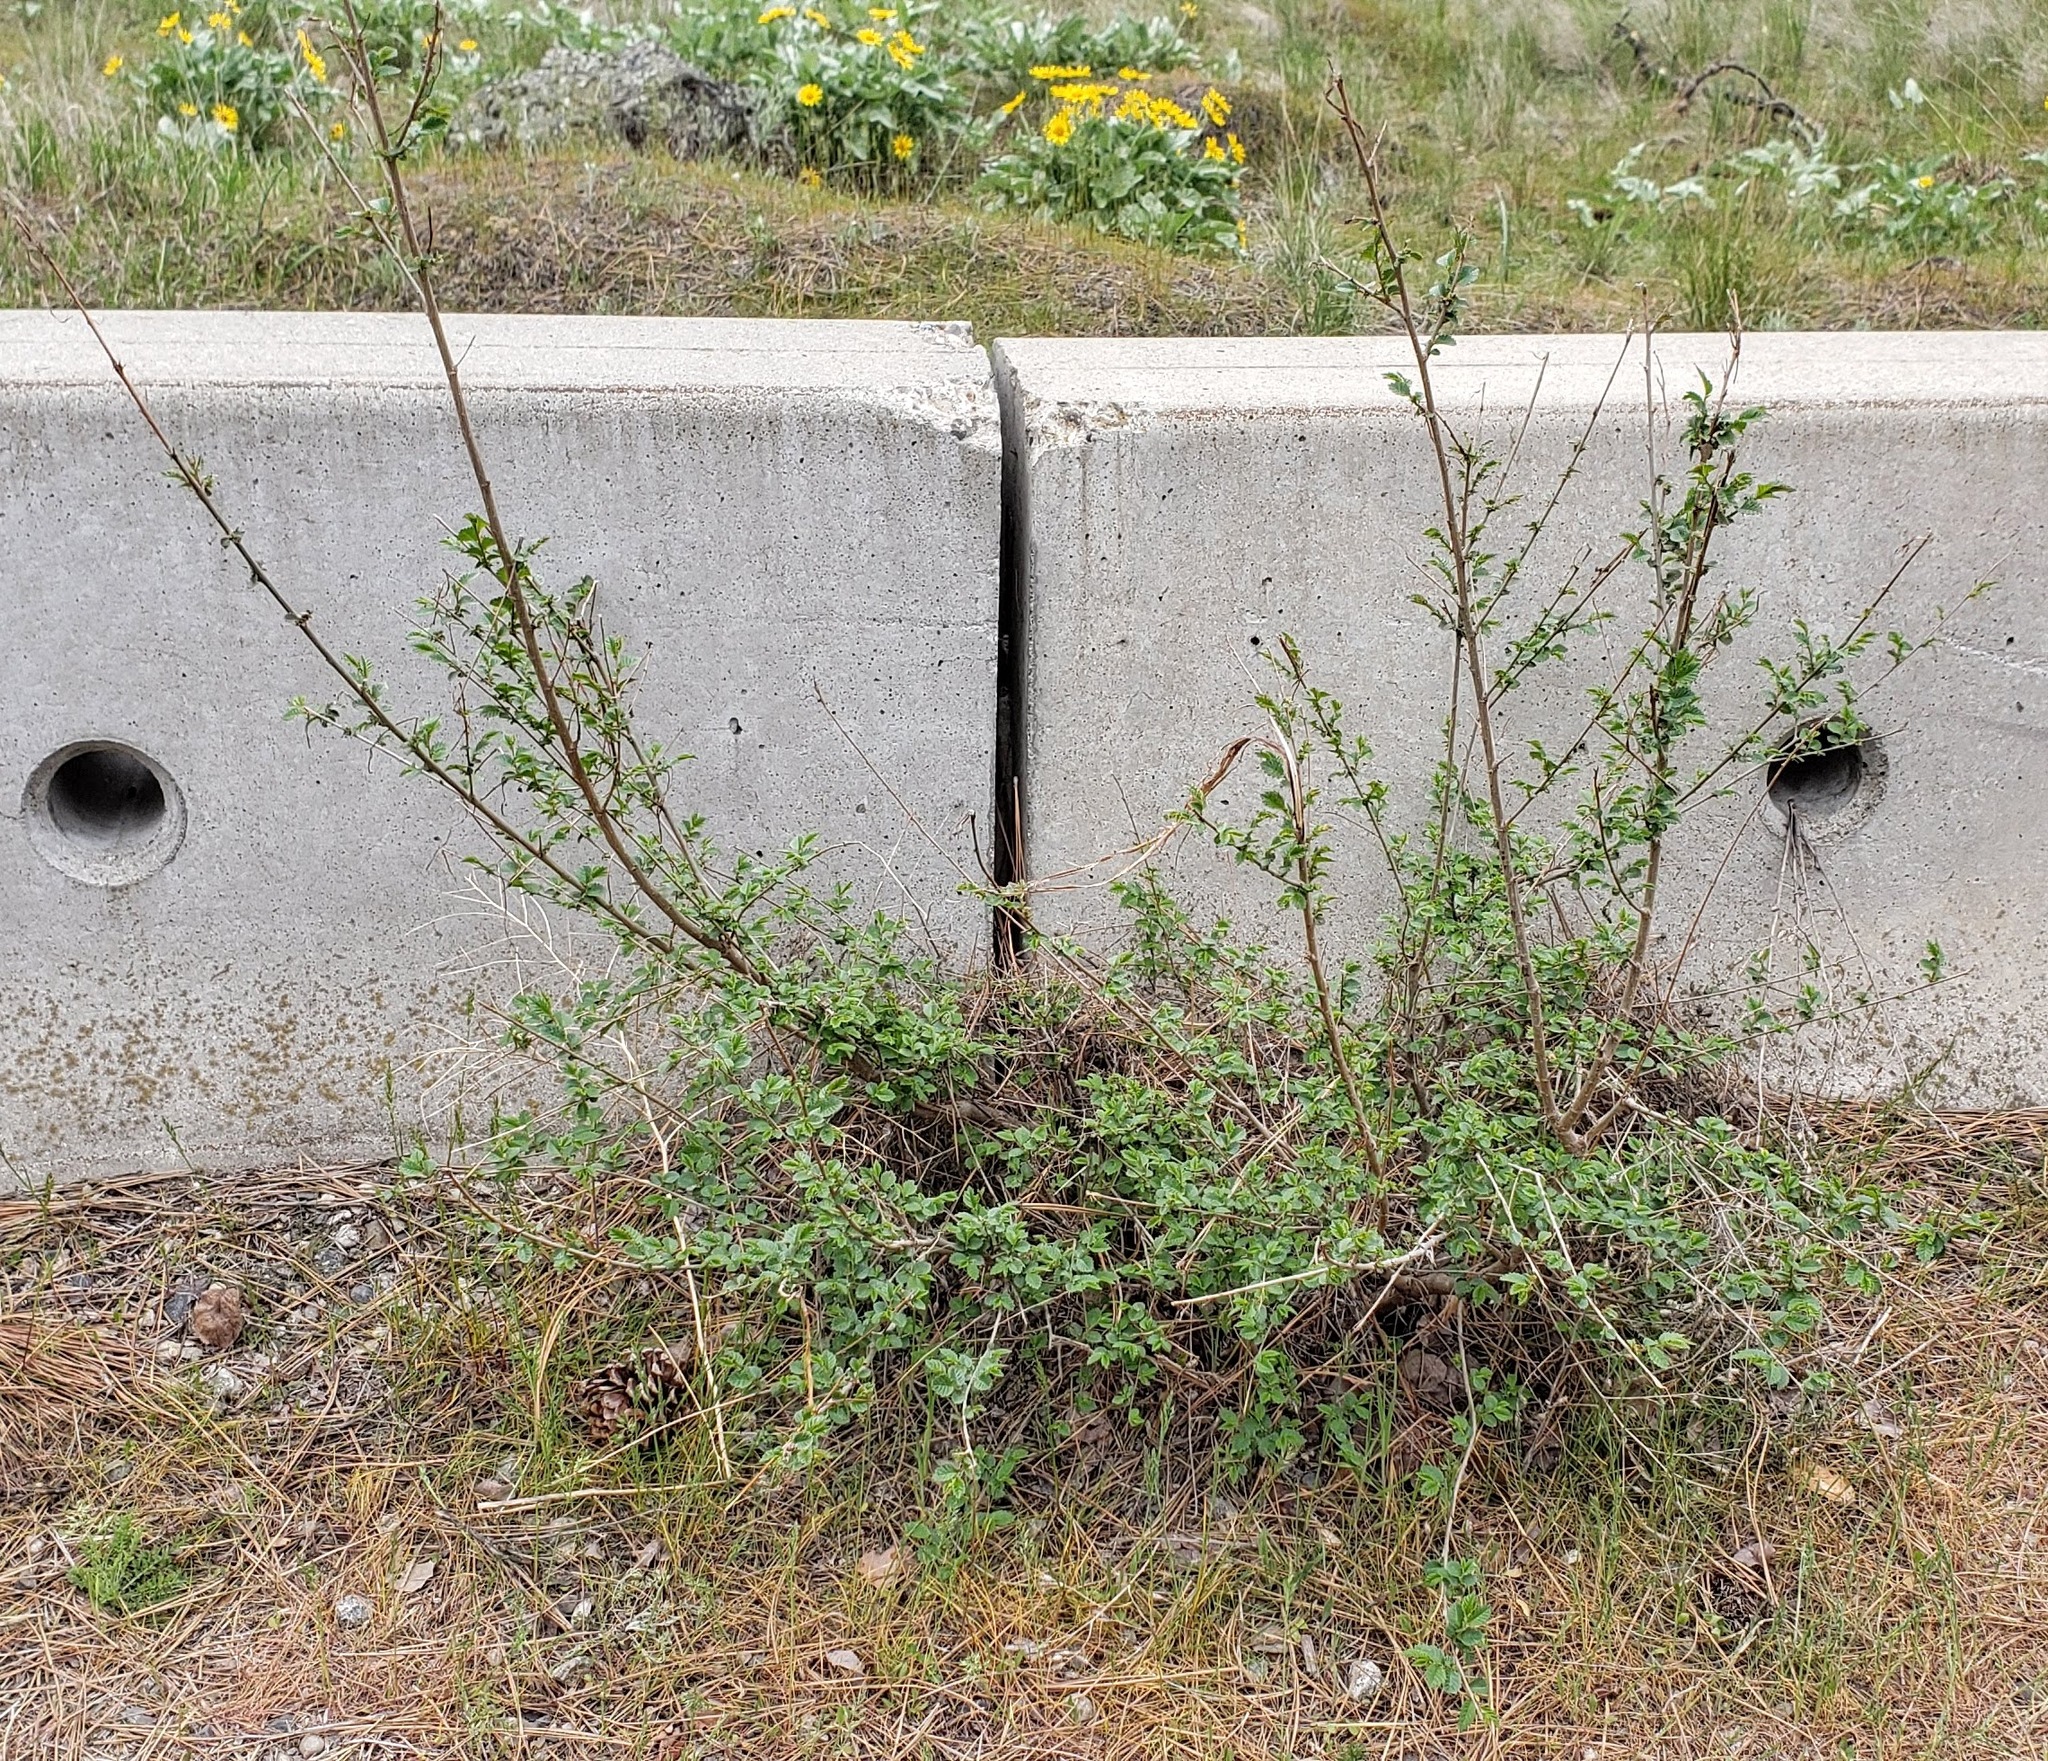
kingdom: Plantae
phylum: Tracheophyta
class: Magnoliopsida
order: Rosales
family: Ulmaceae
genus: Ulmus
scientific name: Ulmus pumila
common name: Siberian elm
